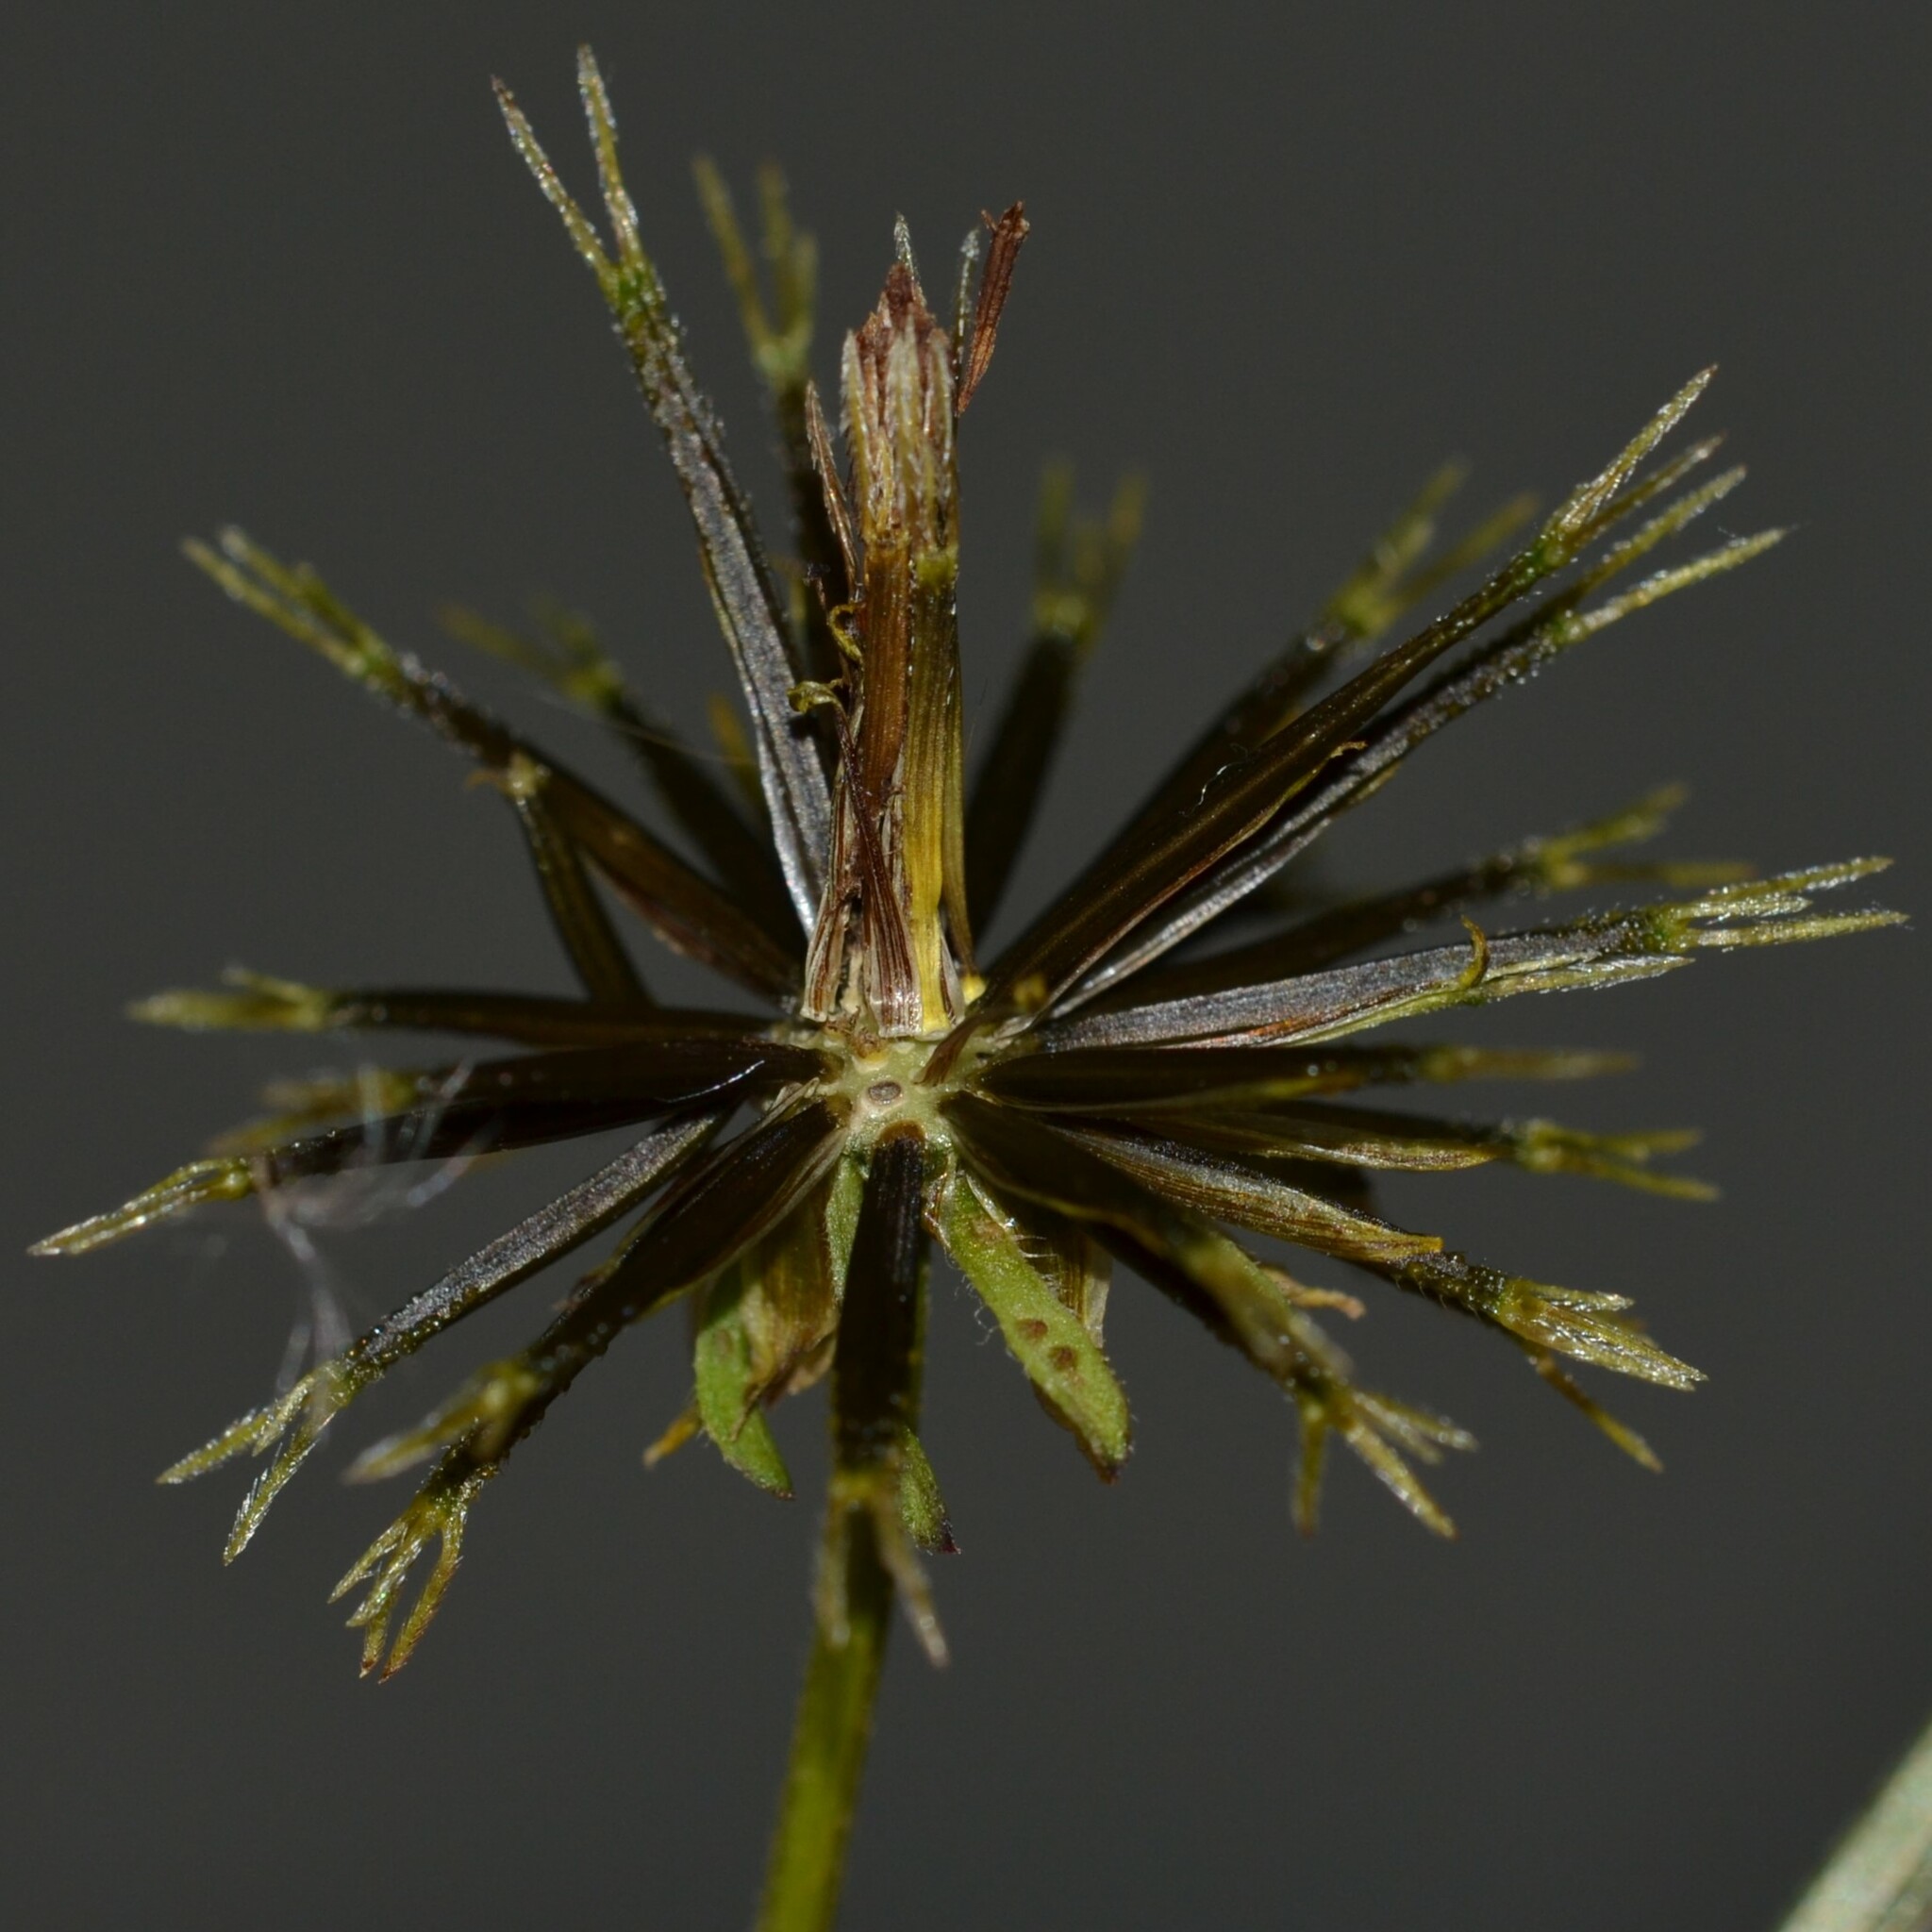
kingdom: Plantae
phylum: Tracheophyta
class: Magnoliopsida
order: Asterales
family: Asteraceae
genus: Bidens
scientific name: Bidens pilosa
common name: Black-jack
